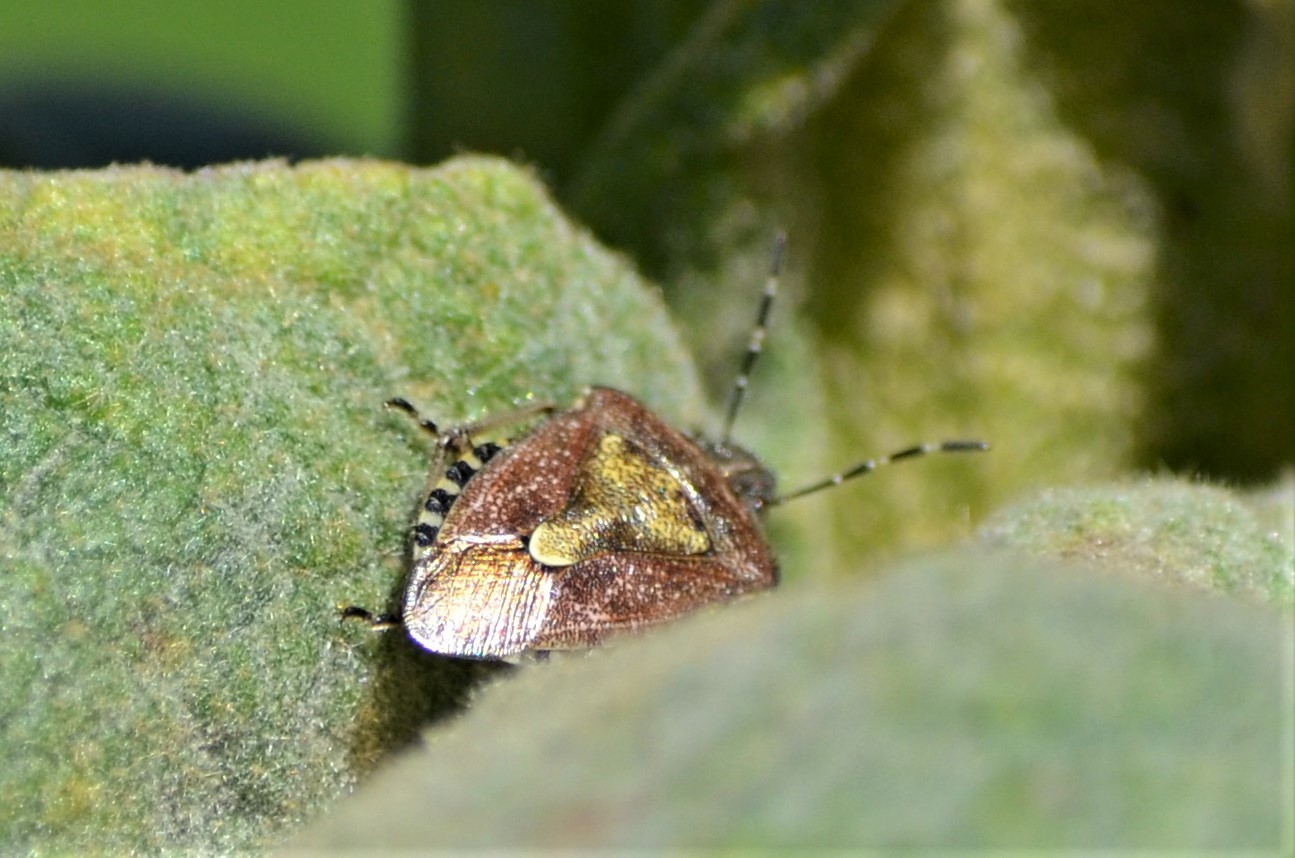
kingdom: Animalia
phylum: Arthropoda
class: Insecta
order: Hemiptera
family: Pentatomidae
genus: Dolycoris
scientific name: Dolycoris baccarum
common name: Sloe bug
